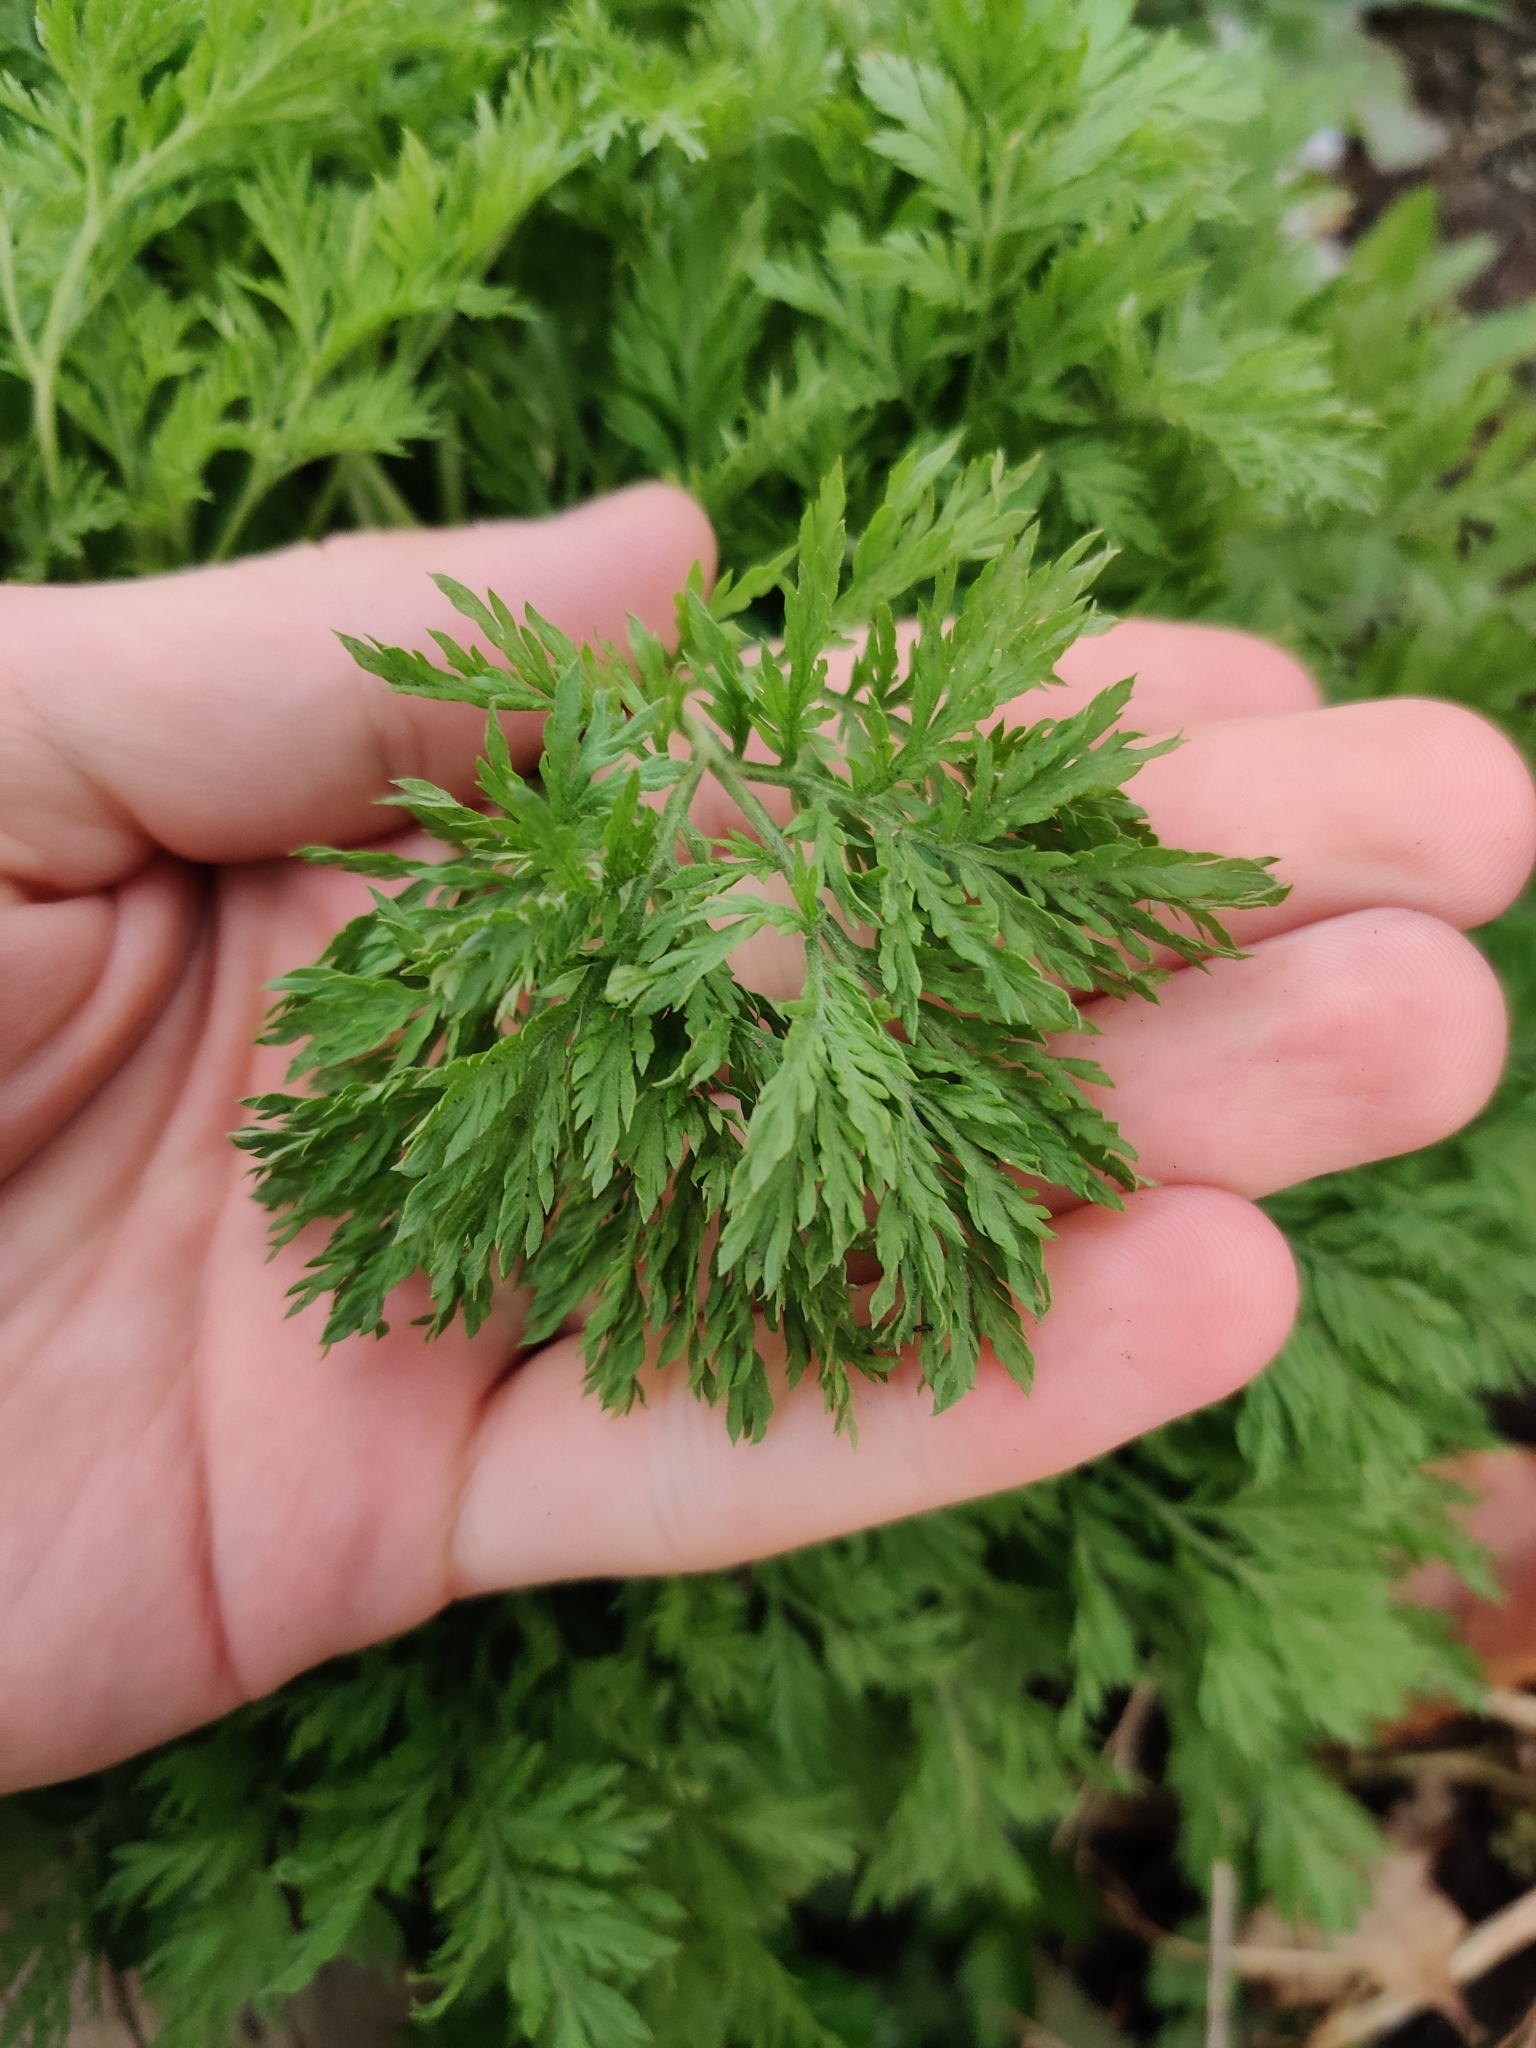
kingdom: Plantae
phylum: Tracheophyta
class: Magnoliopsida
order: Asterales
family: Asteraceae
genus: Artemisia
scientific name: Artemisia annua
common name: Sweet sagewort
